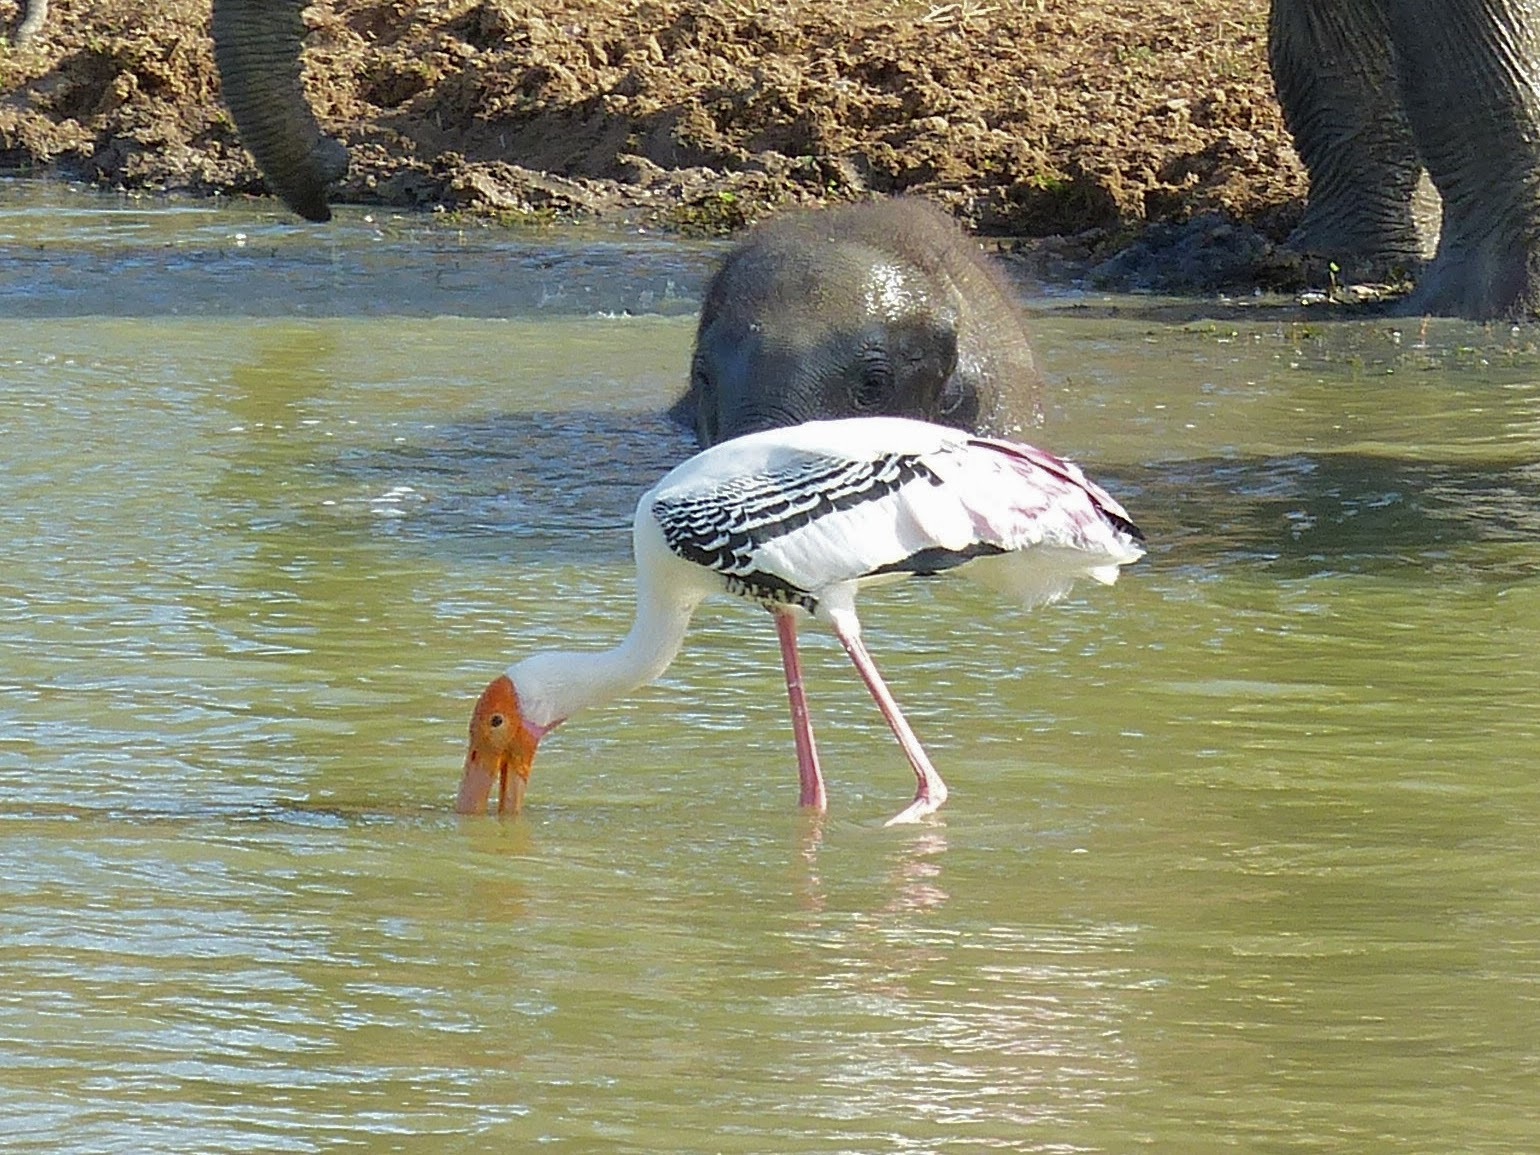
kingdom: Animalia
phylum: Chordata
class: Aves
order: Ciconiiformes
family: Ciconiidae
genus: Mycteria
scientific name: Mycteria leucocephala
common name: Painted stork
